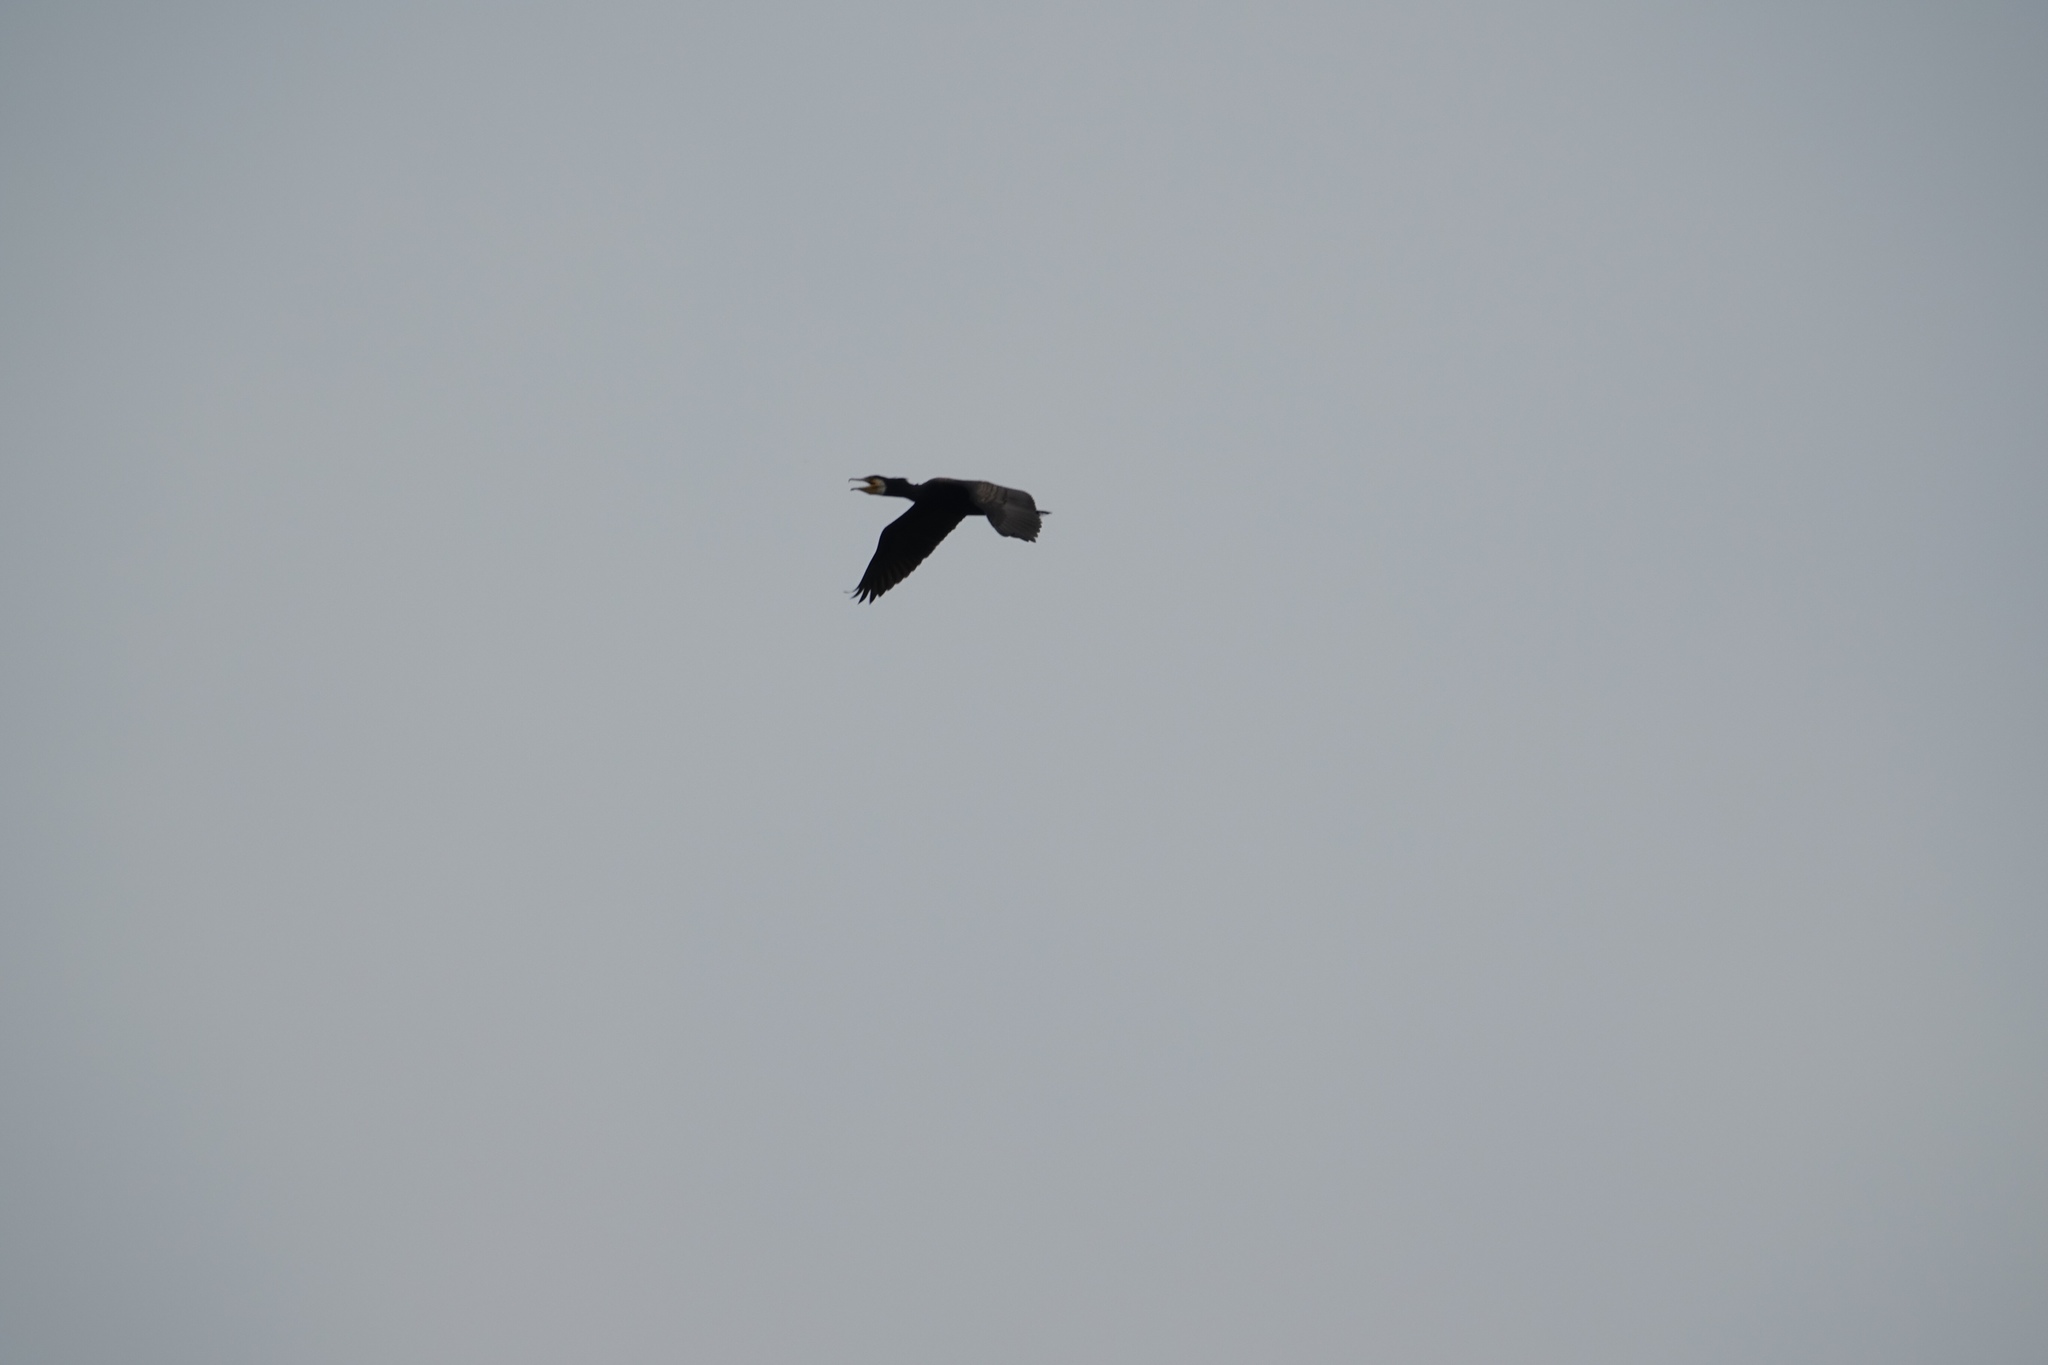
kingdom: Animalia
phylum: Chordata
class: Aves
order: Suliformes
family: Phalacrocoracidae
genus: Phalacrocorax
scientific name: Phalacrocorax capillatus
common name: Japanese cormorant
